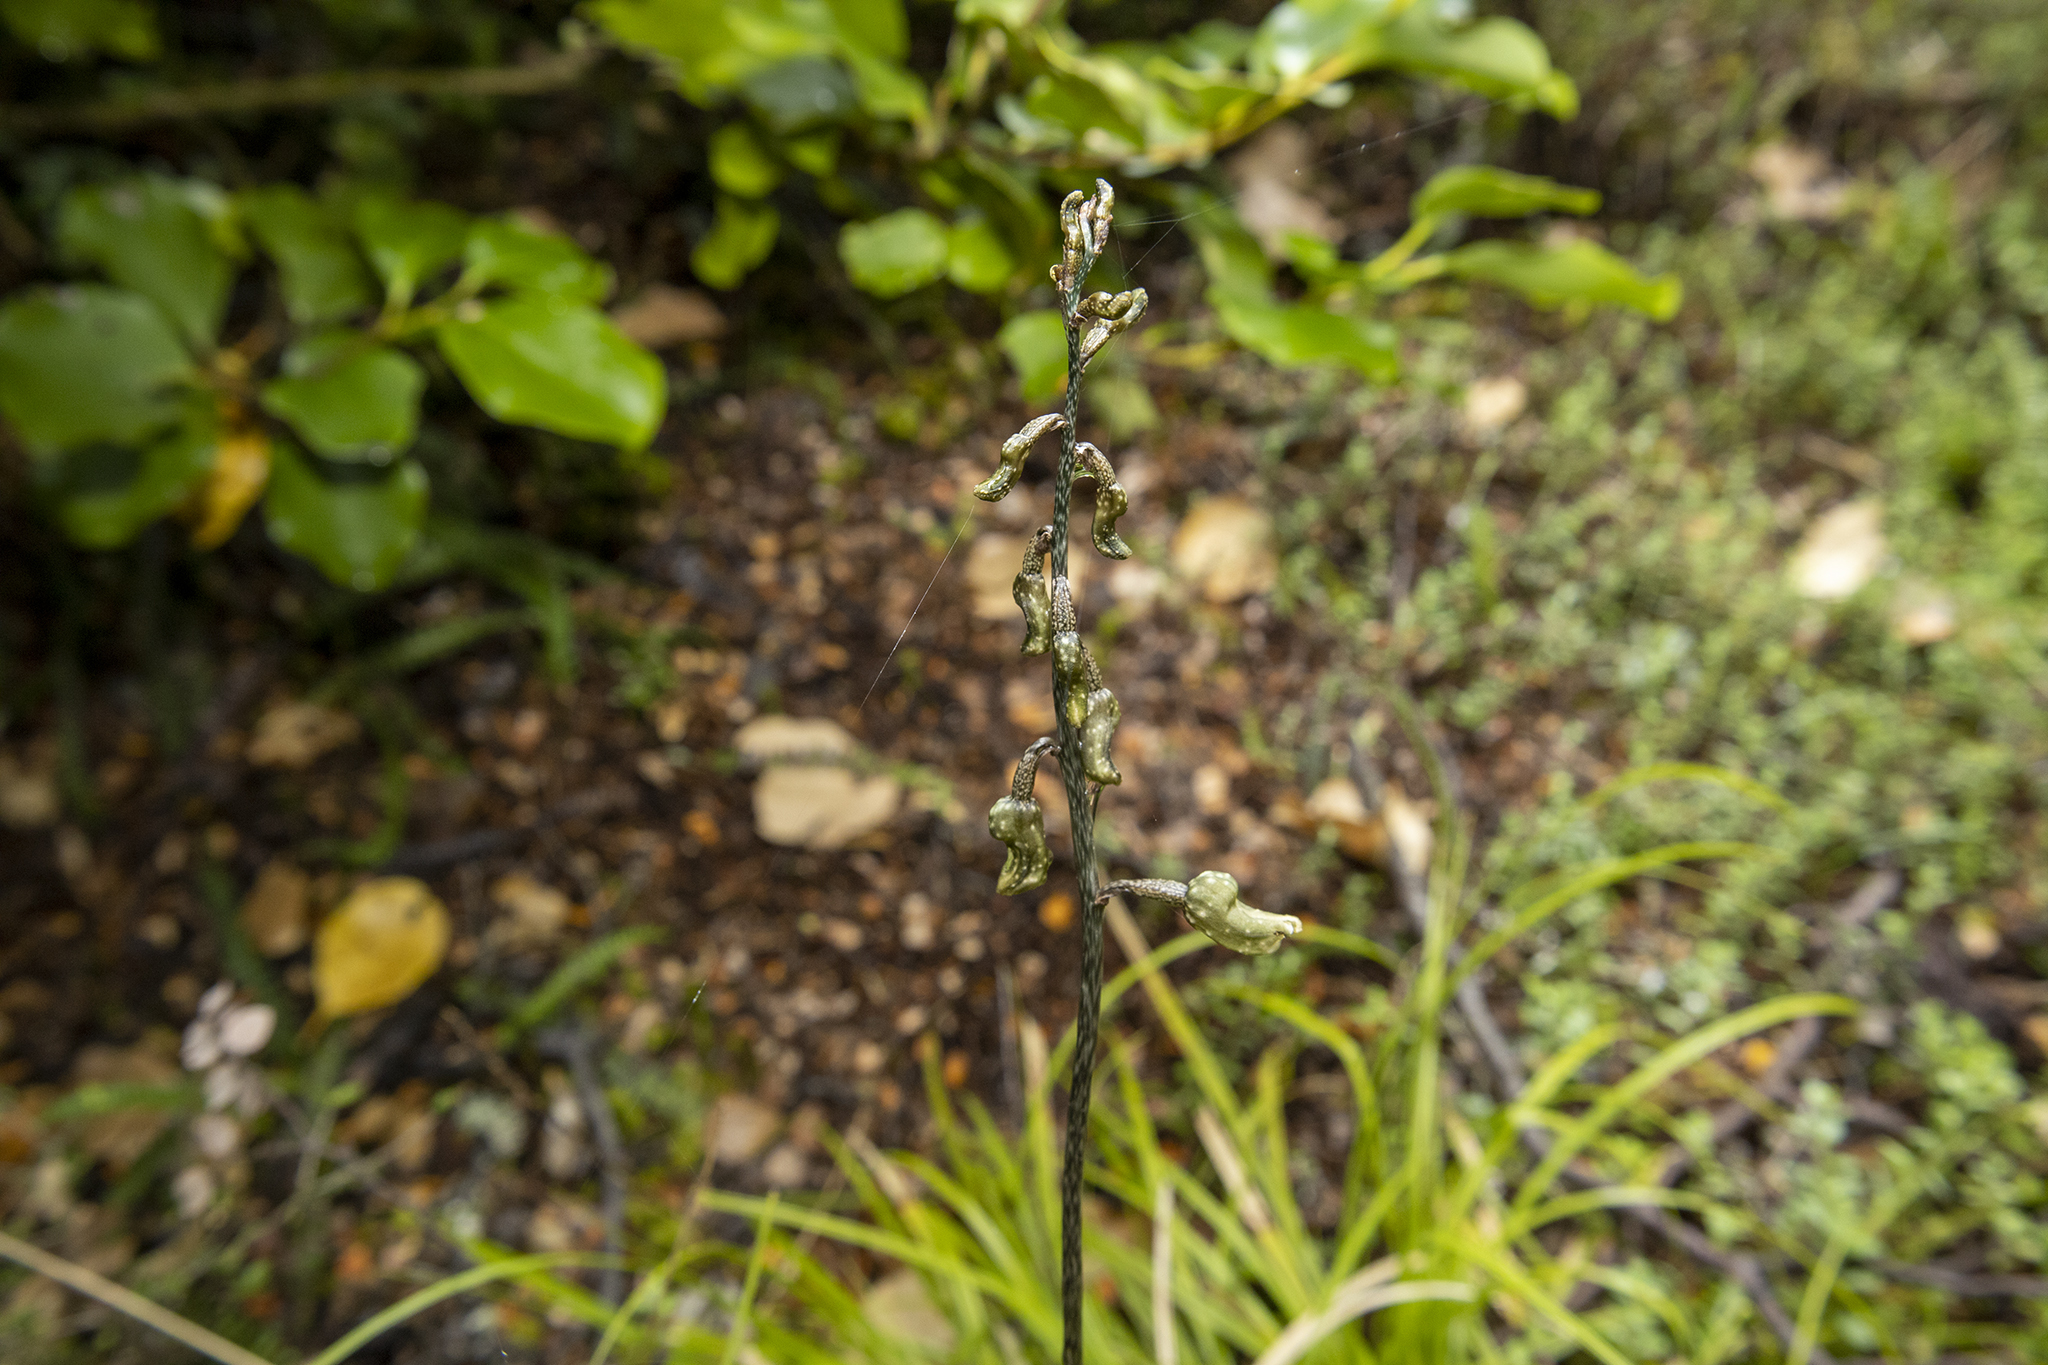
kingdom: Plantae
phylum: Tracheophyta
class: Liliopsida
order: Asparagales
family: Orchidaceae
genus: Gastrodia
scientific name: Gastrodia cunninghamii
